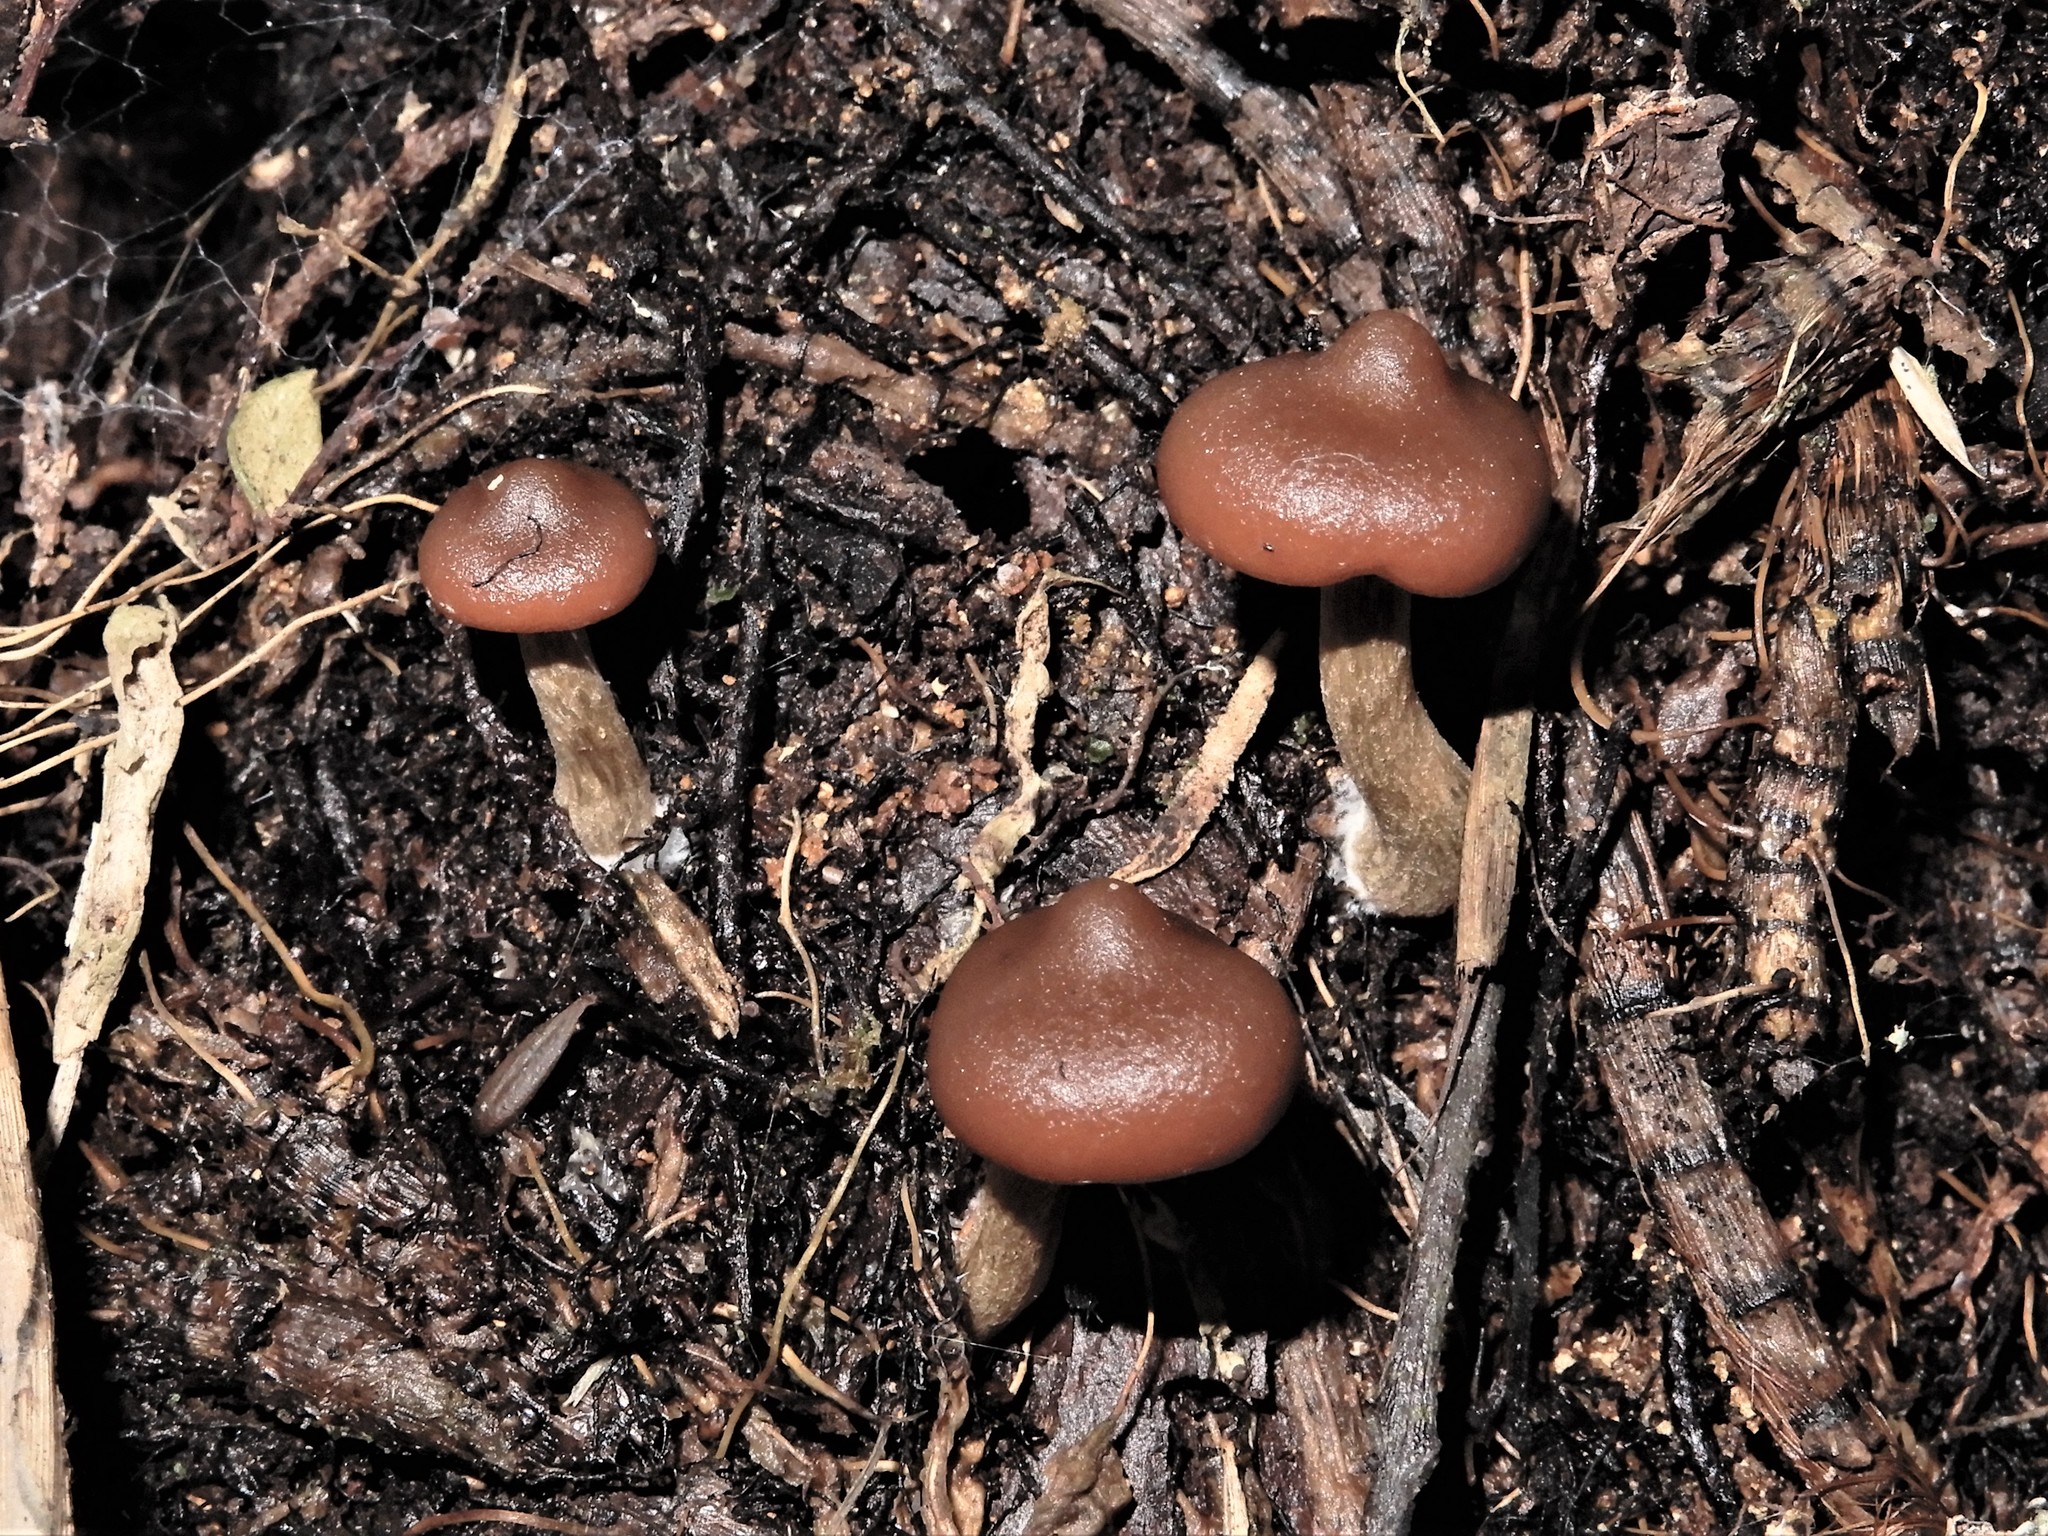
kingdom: Fungi
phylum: Basidiomycota
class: Agaricomycetes
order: Agaricales
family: Hymenogastraceae
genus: Galerina
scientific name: Galerina patagonica
